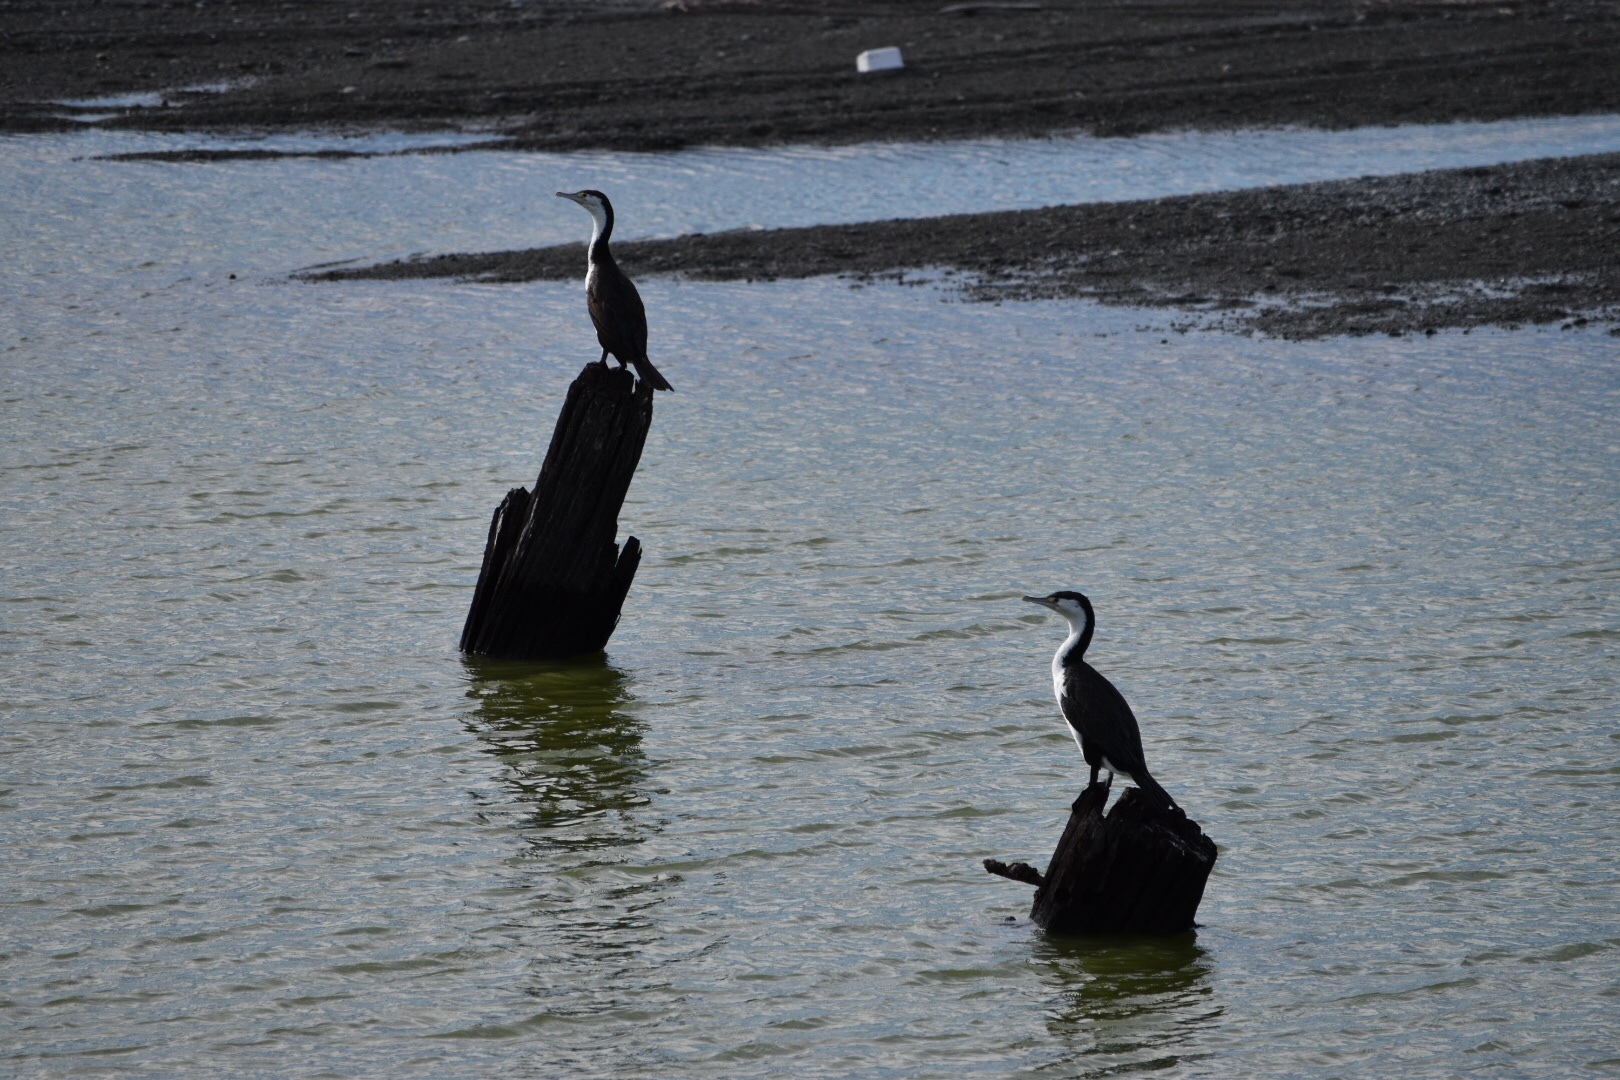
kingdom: Animalia
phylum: Chordata
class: Aves
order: Suliformes
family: Phalacrocoracidae
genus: Phalacrocorax
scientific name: Phalacrocorax varius
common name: Pied cormorant
